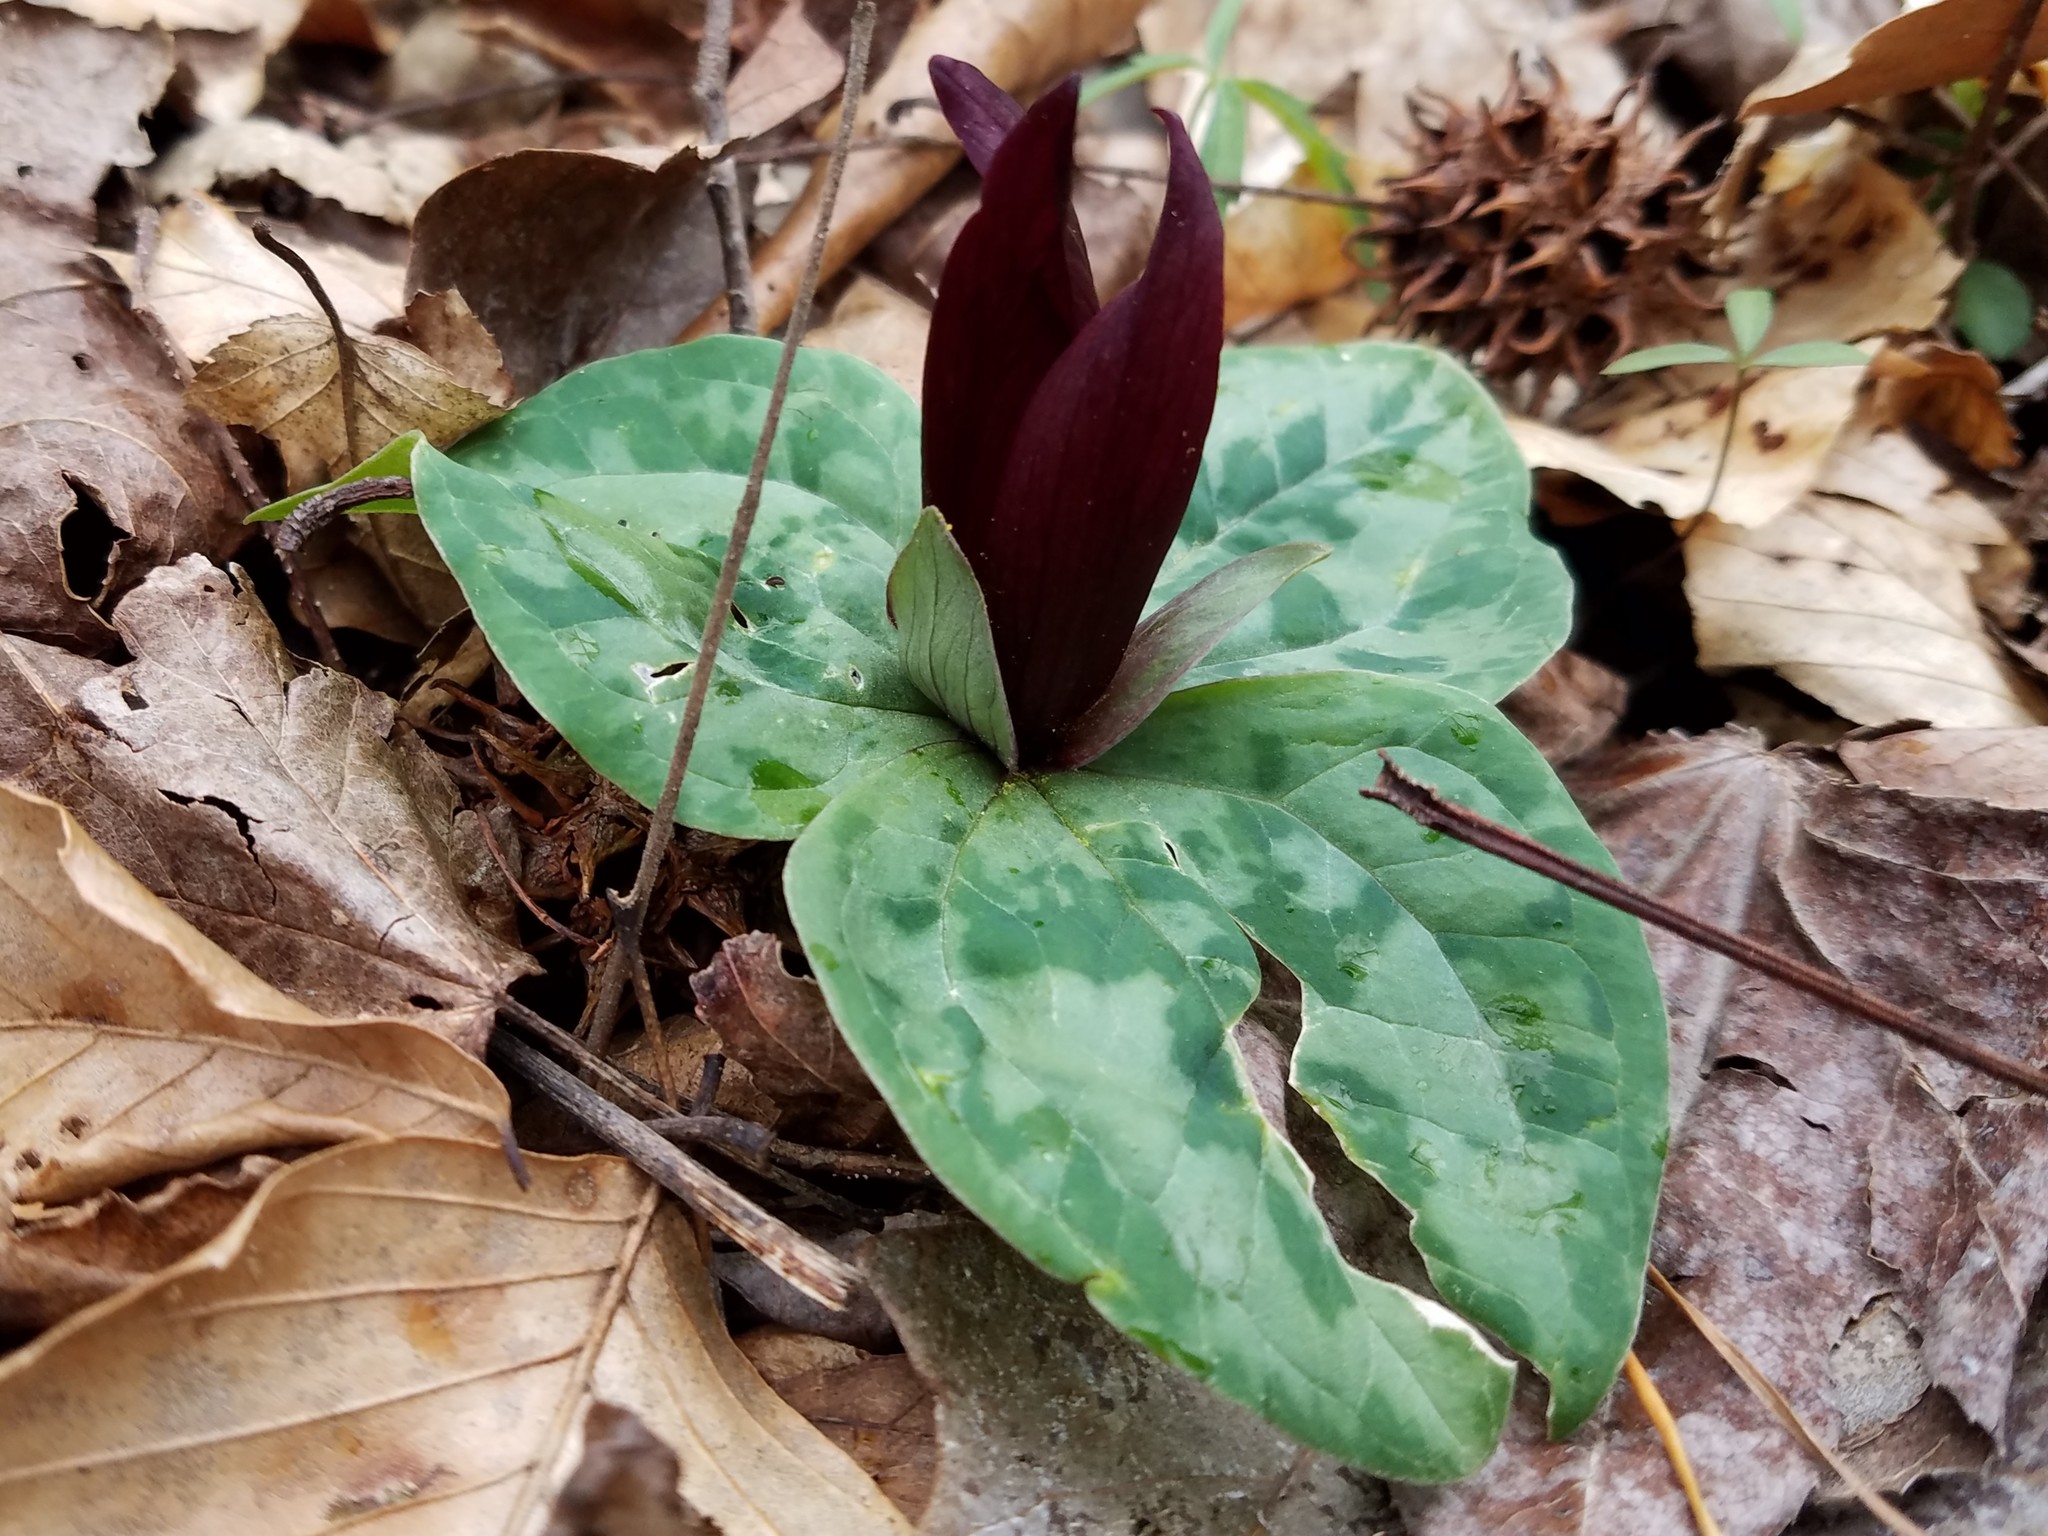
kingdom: Plantae
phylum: Tracheophyta
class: Liliopsida
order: Liliales
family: Melanthiaceae
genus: Trillium
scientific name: Trillium decumbens
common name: Decumbent trillium
